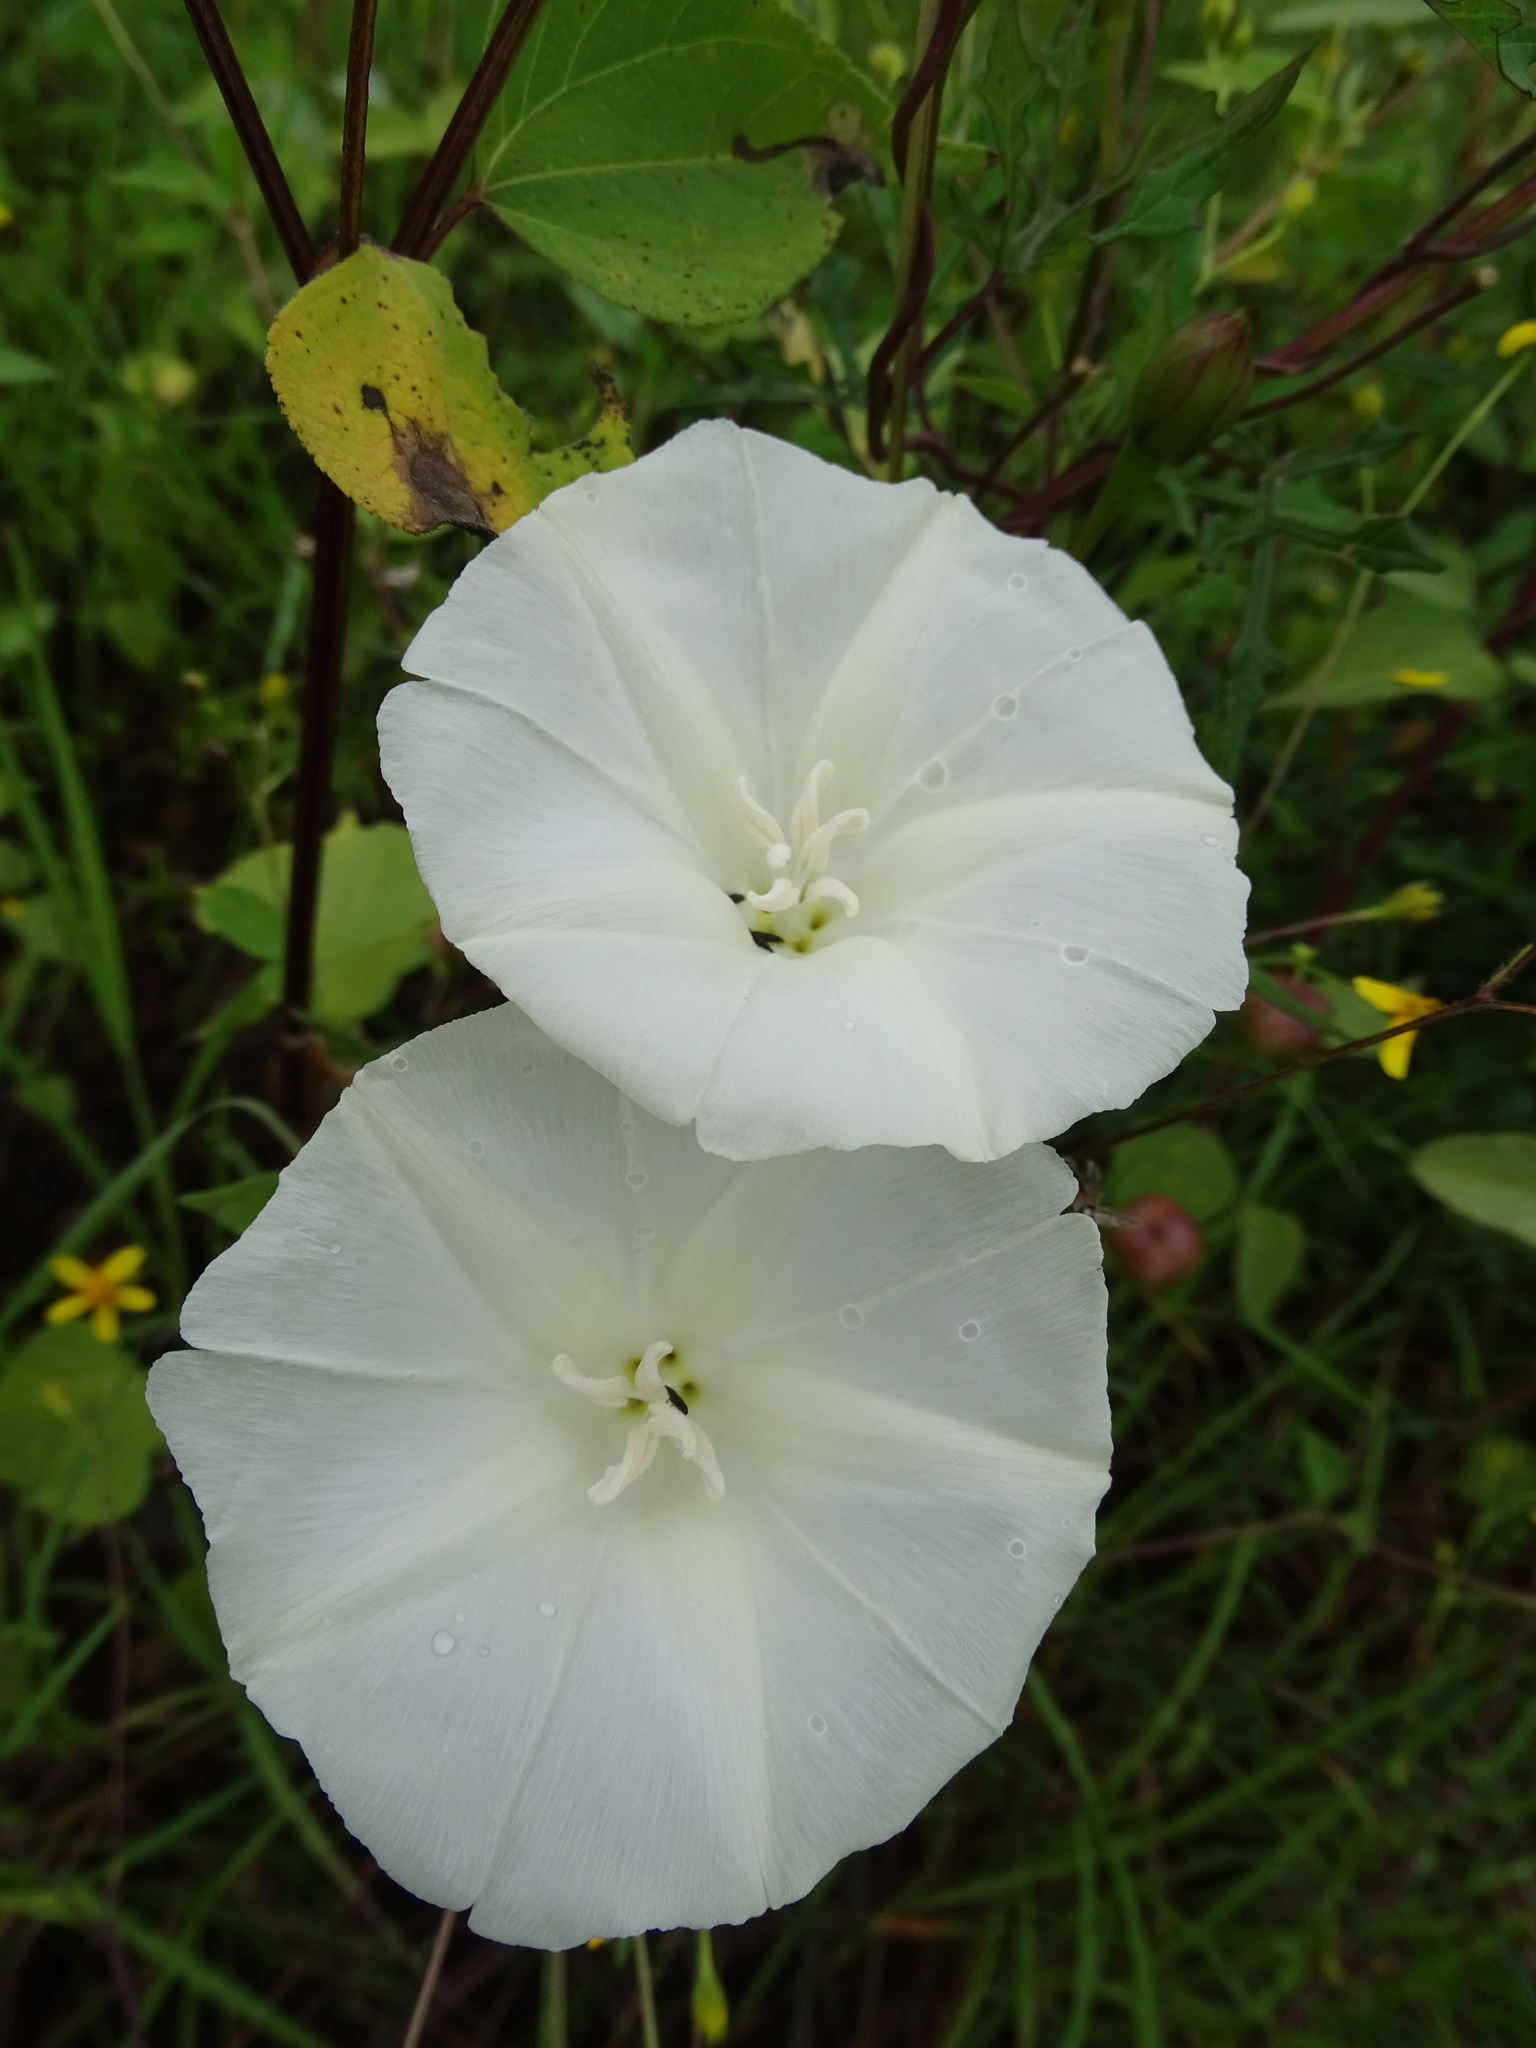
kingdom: Plantae
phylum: Tracheophyta
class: Magnoliopsida
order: Solanales
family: Convolvulaceae
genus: Operculina
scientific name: Operculina pinnatifida
